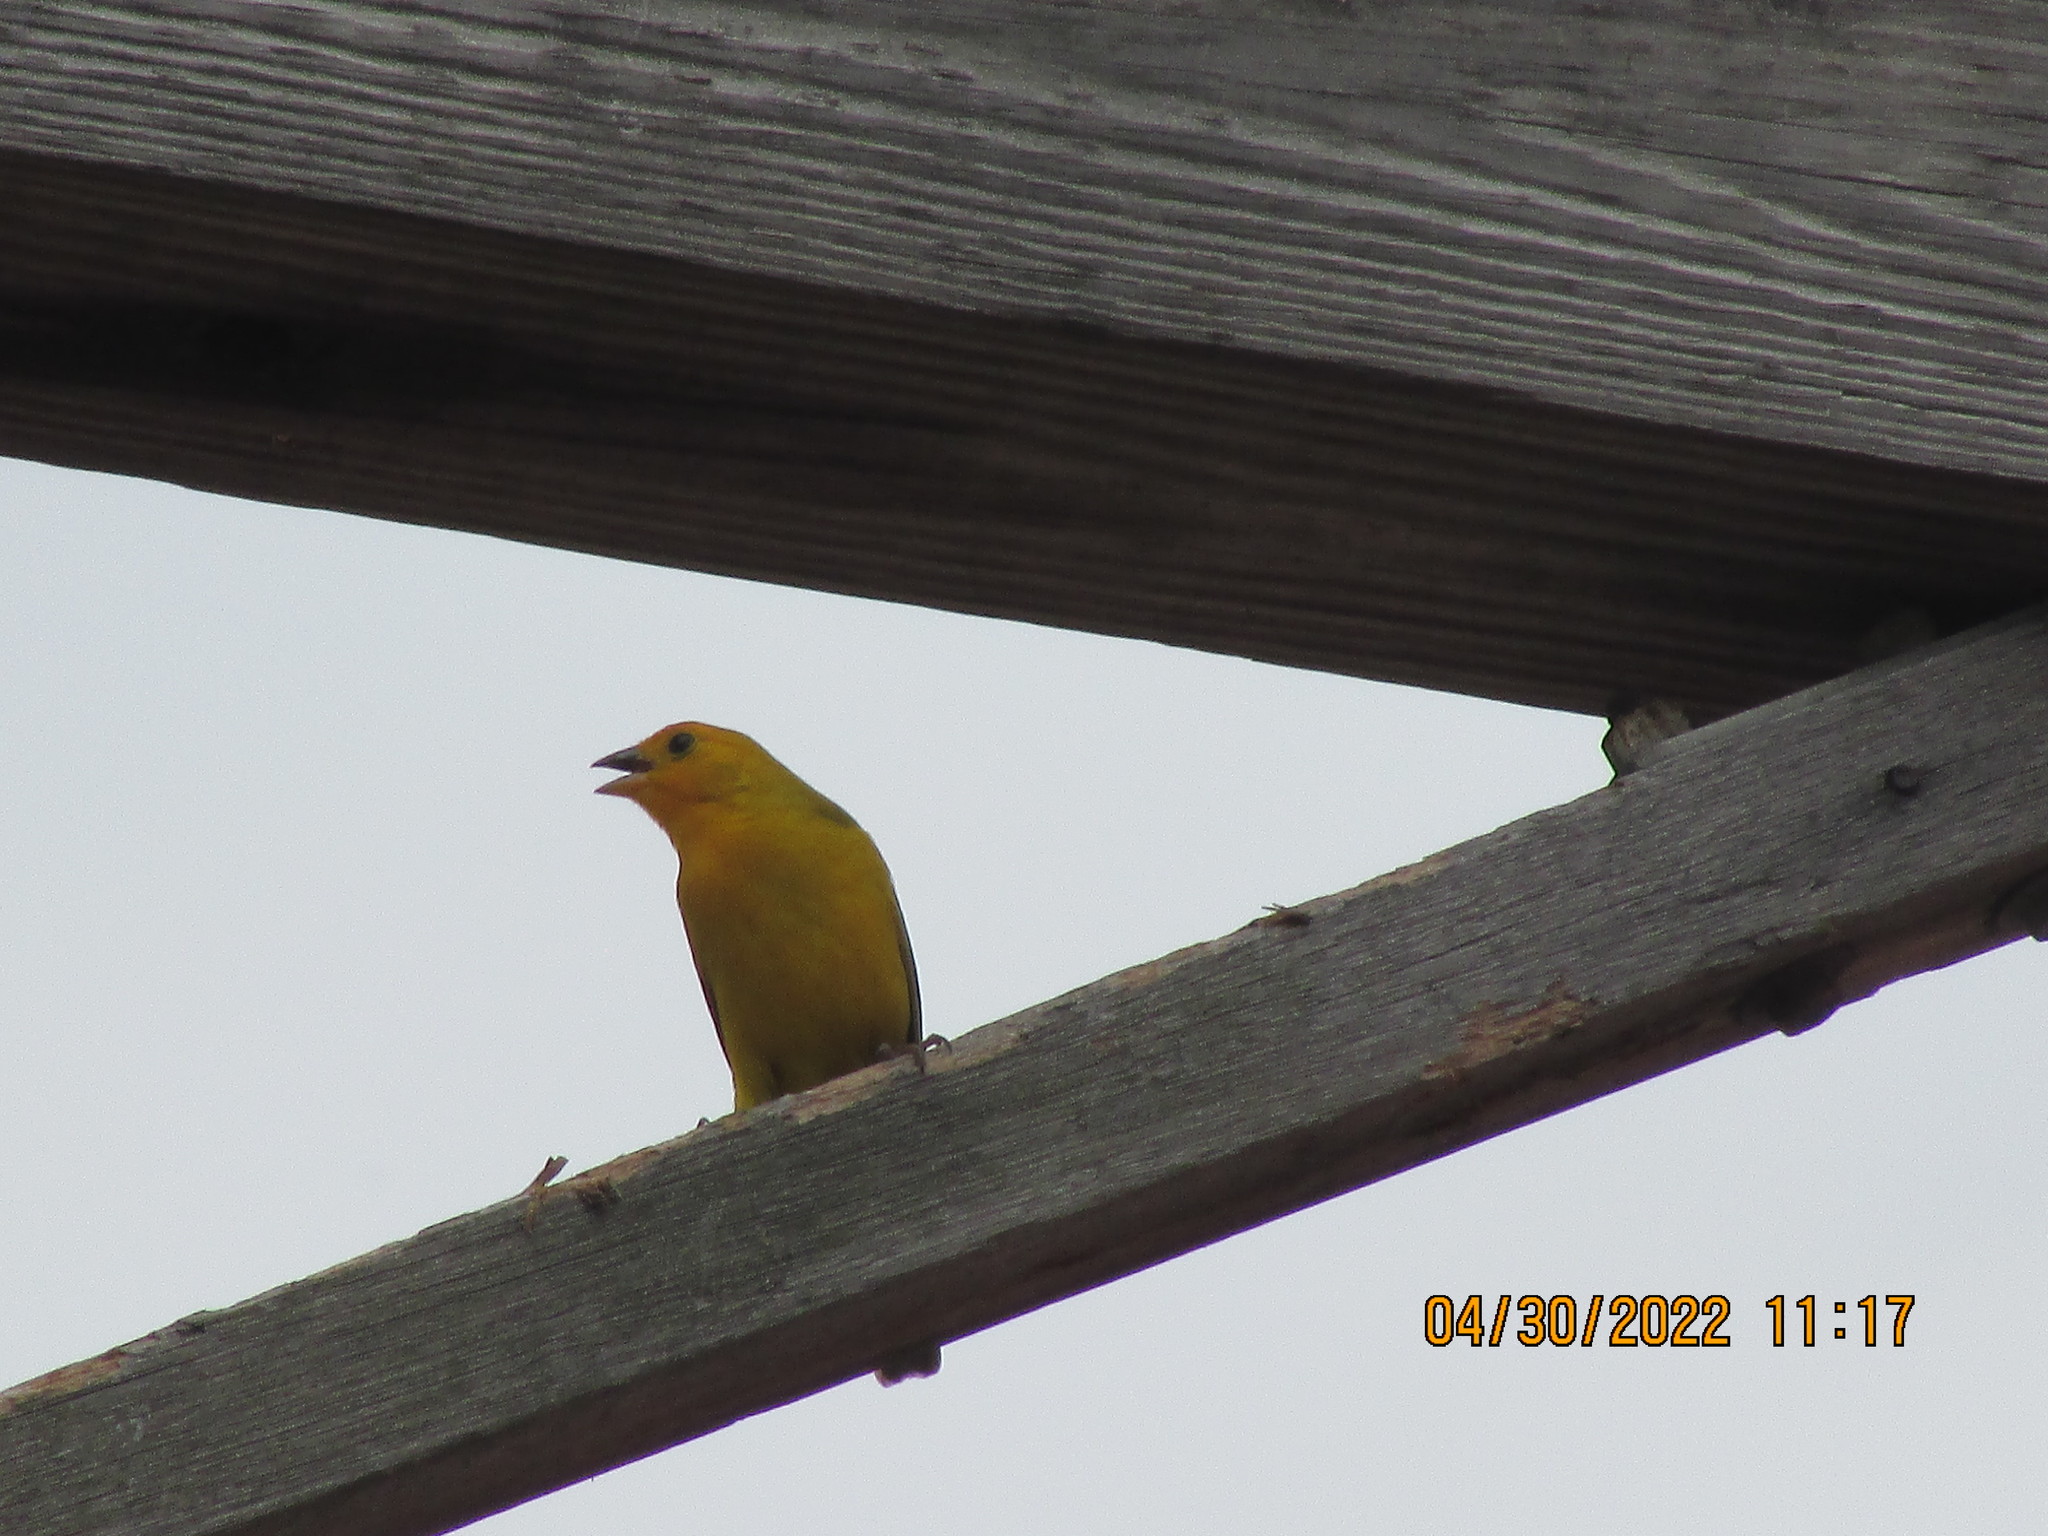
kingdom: Animalia
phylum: Chordata
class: Aves
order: Passeriformes
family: Thraupidae
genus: Sicalis
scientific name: Sicalis flaveola
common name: Saffron finch
